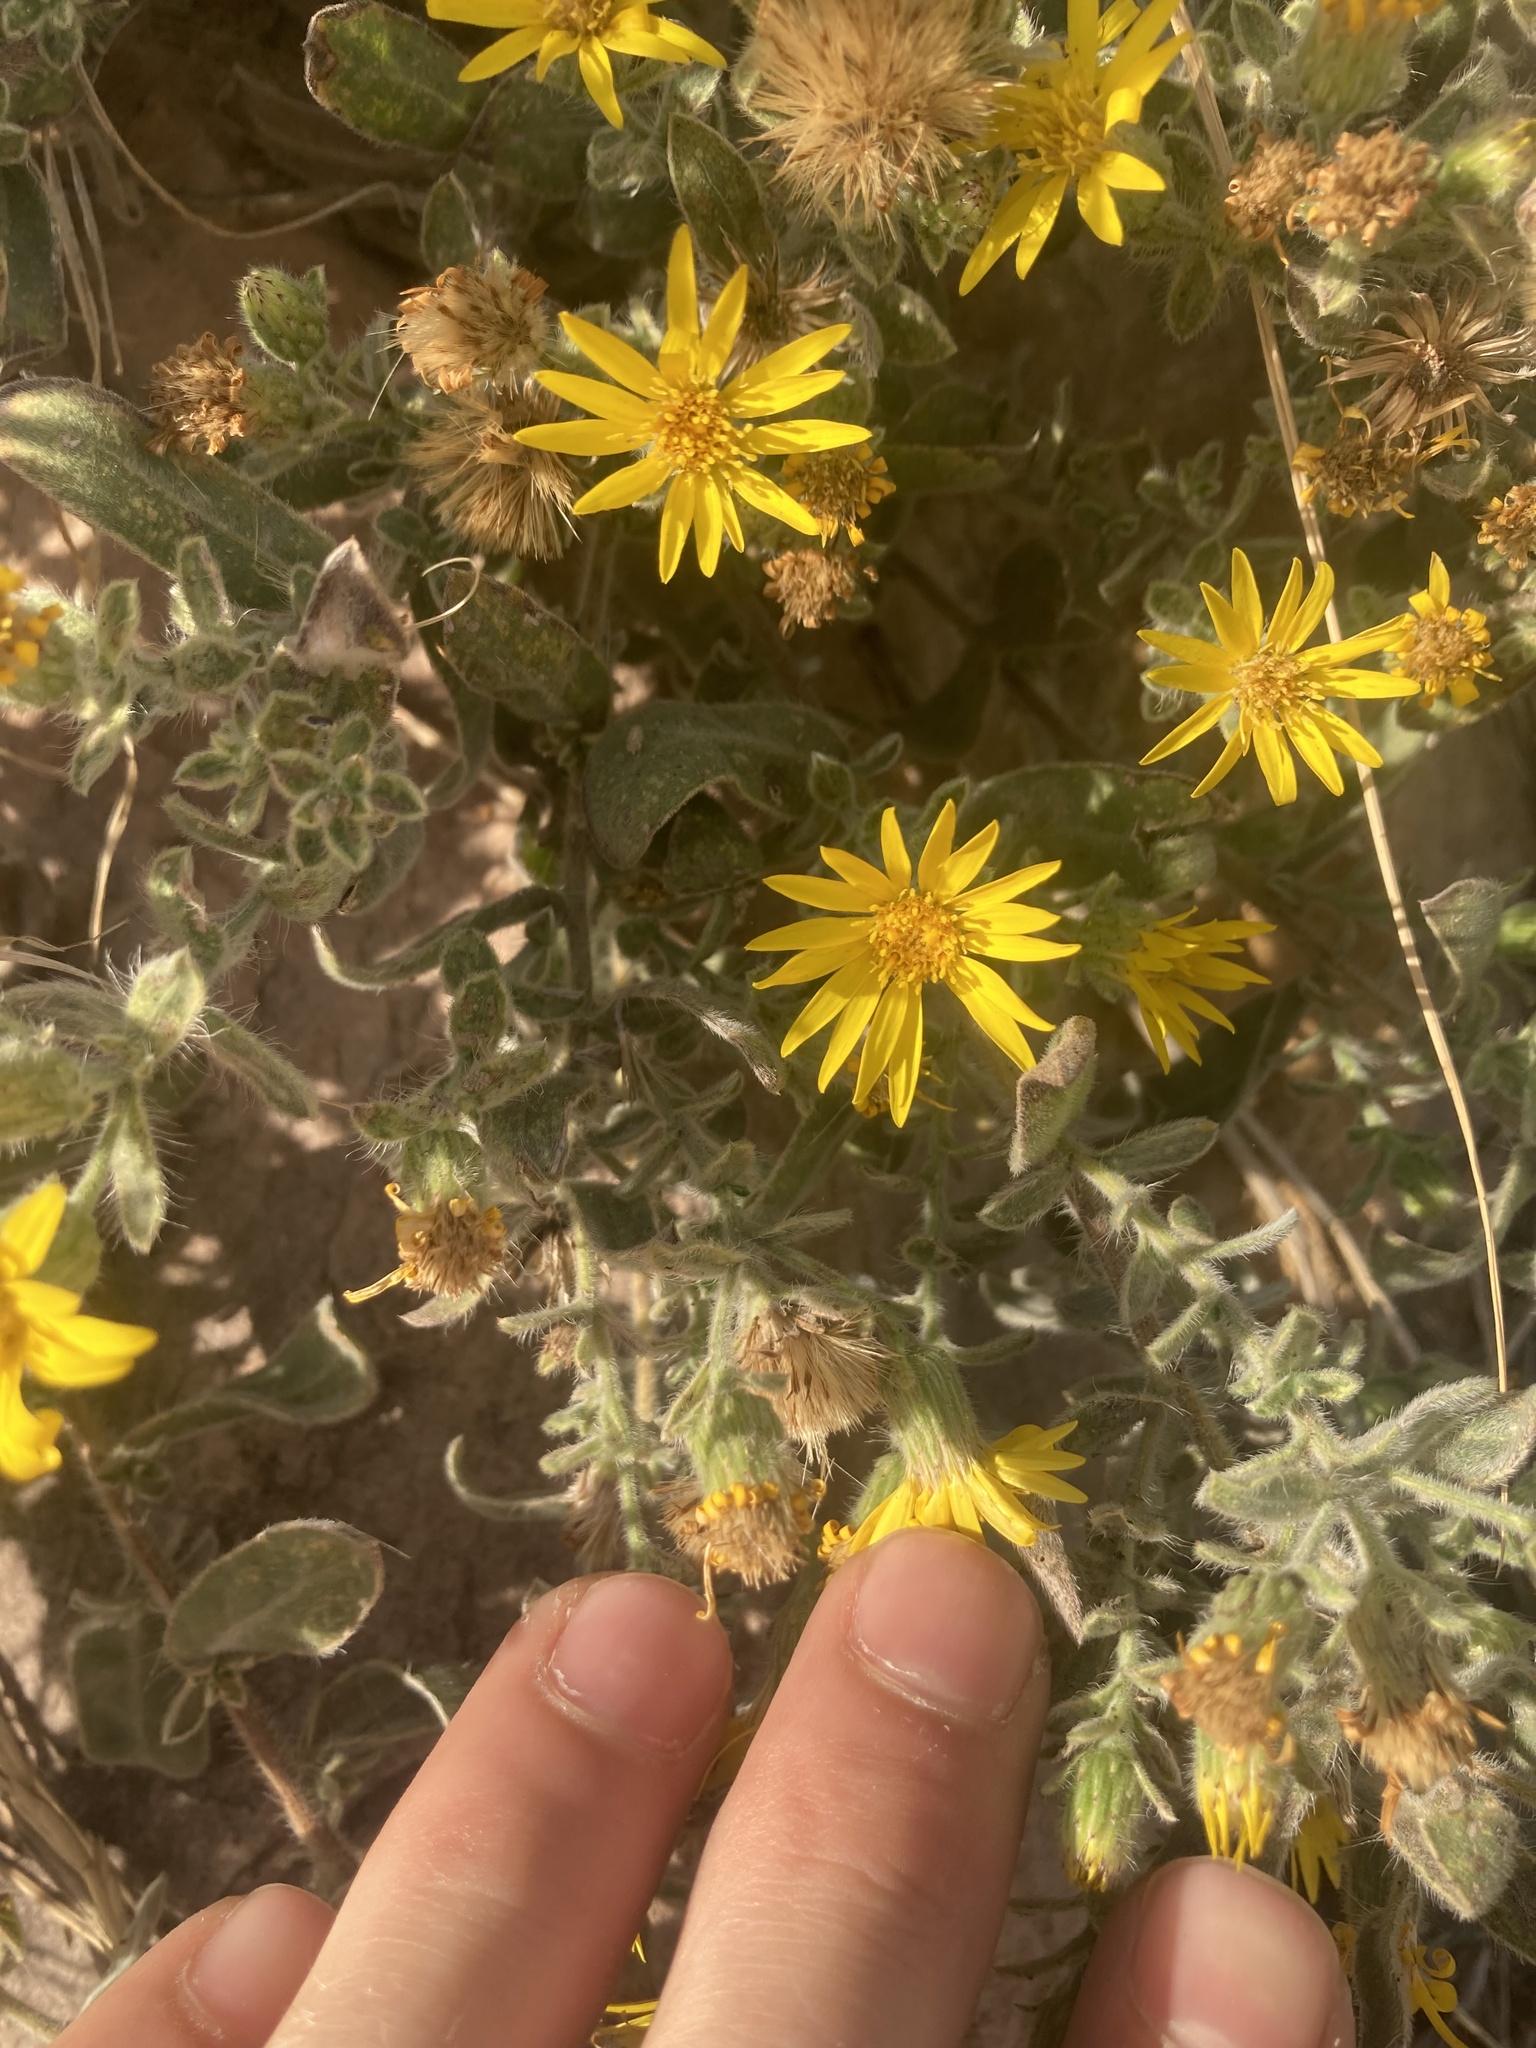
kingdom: Plantae
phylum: Tracheophyta
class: Magnoliopsida
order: Asterales
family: Asteraceae
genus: Heterotheca
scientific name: Heterotheca hispida
